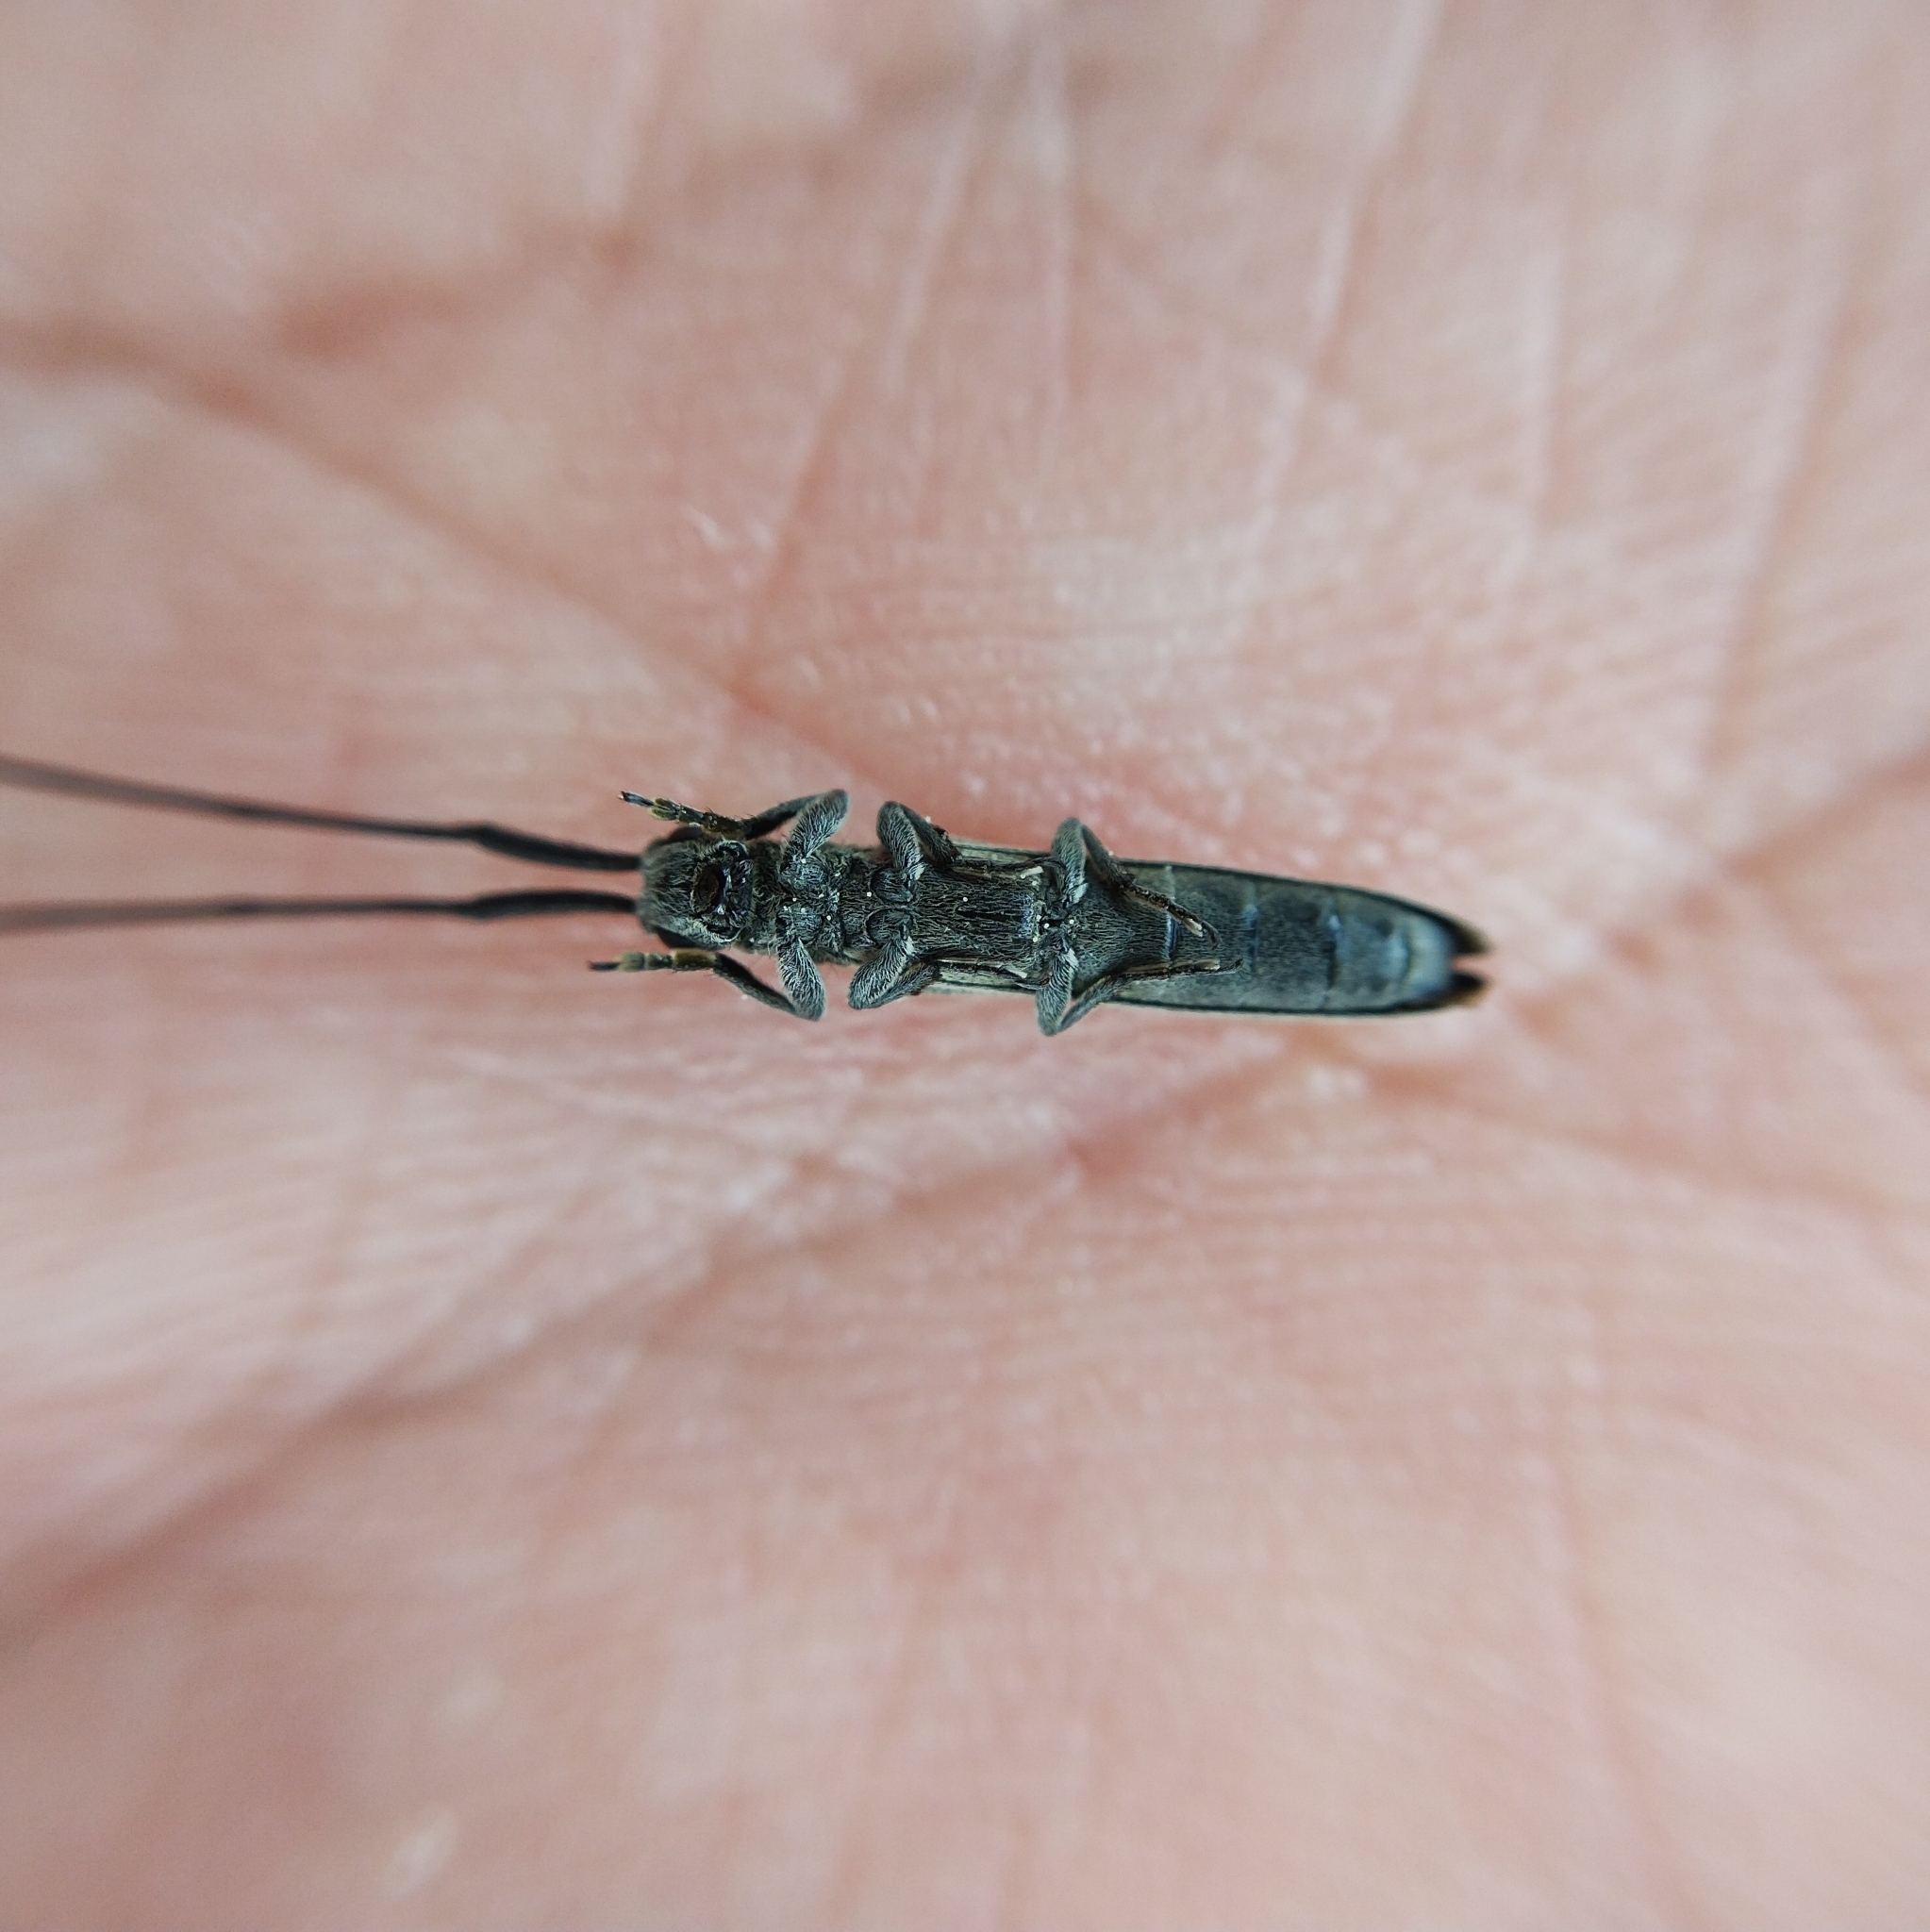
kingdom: Animalia
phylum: Arthropoda
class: Insecta
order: Coleoptera
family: Cerambycidae
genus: Calamobius
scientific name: Calamobius filum
